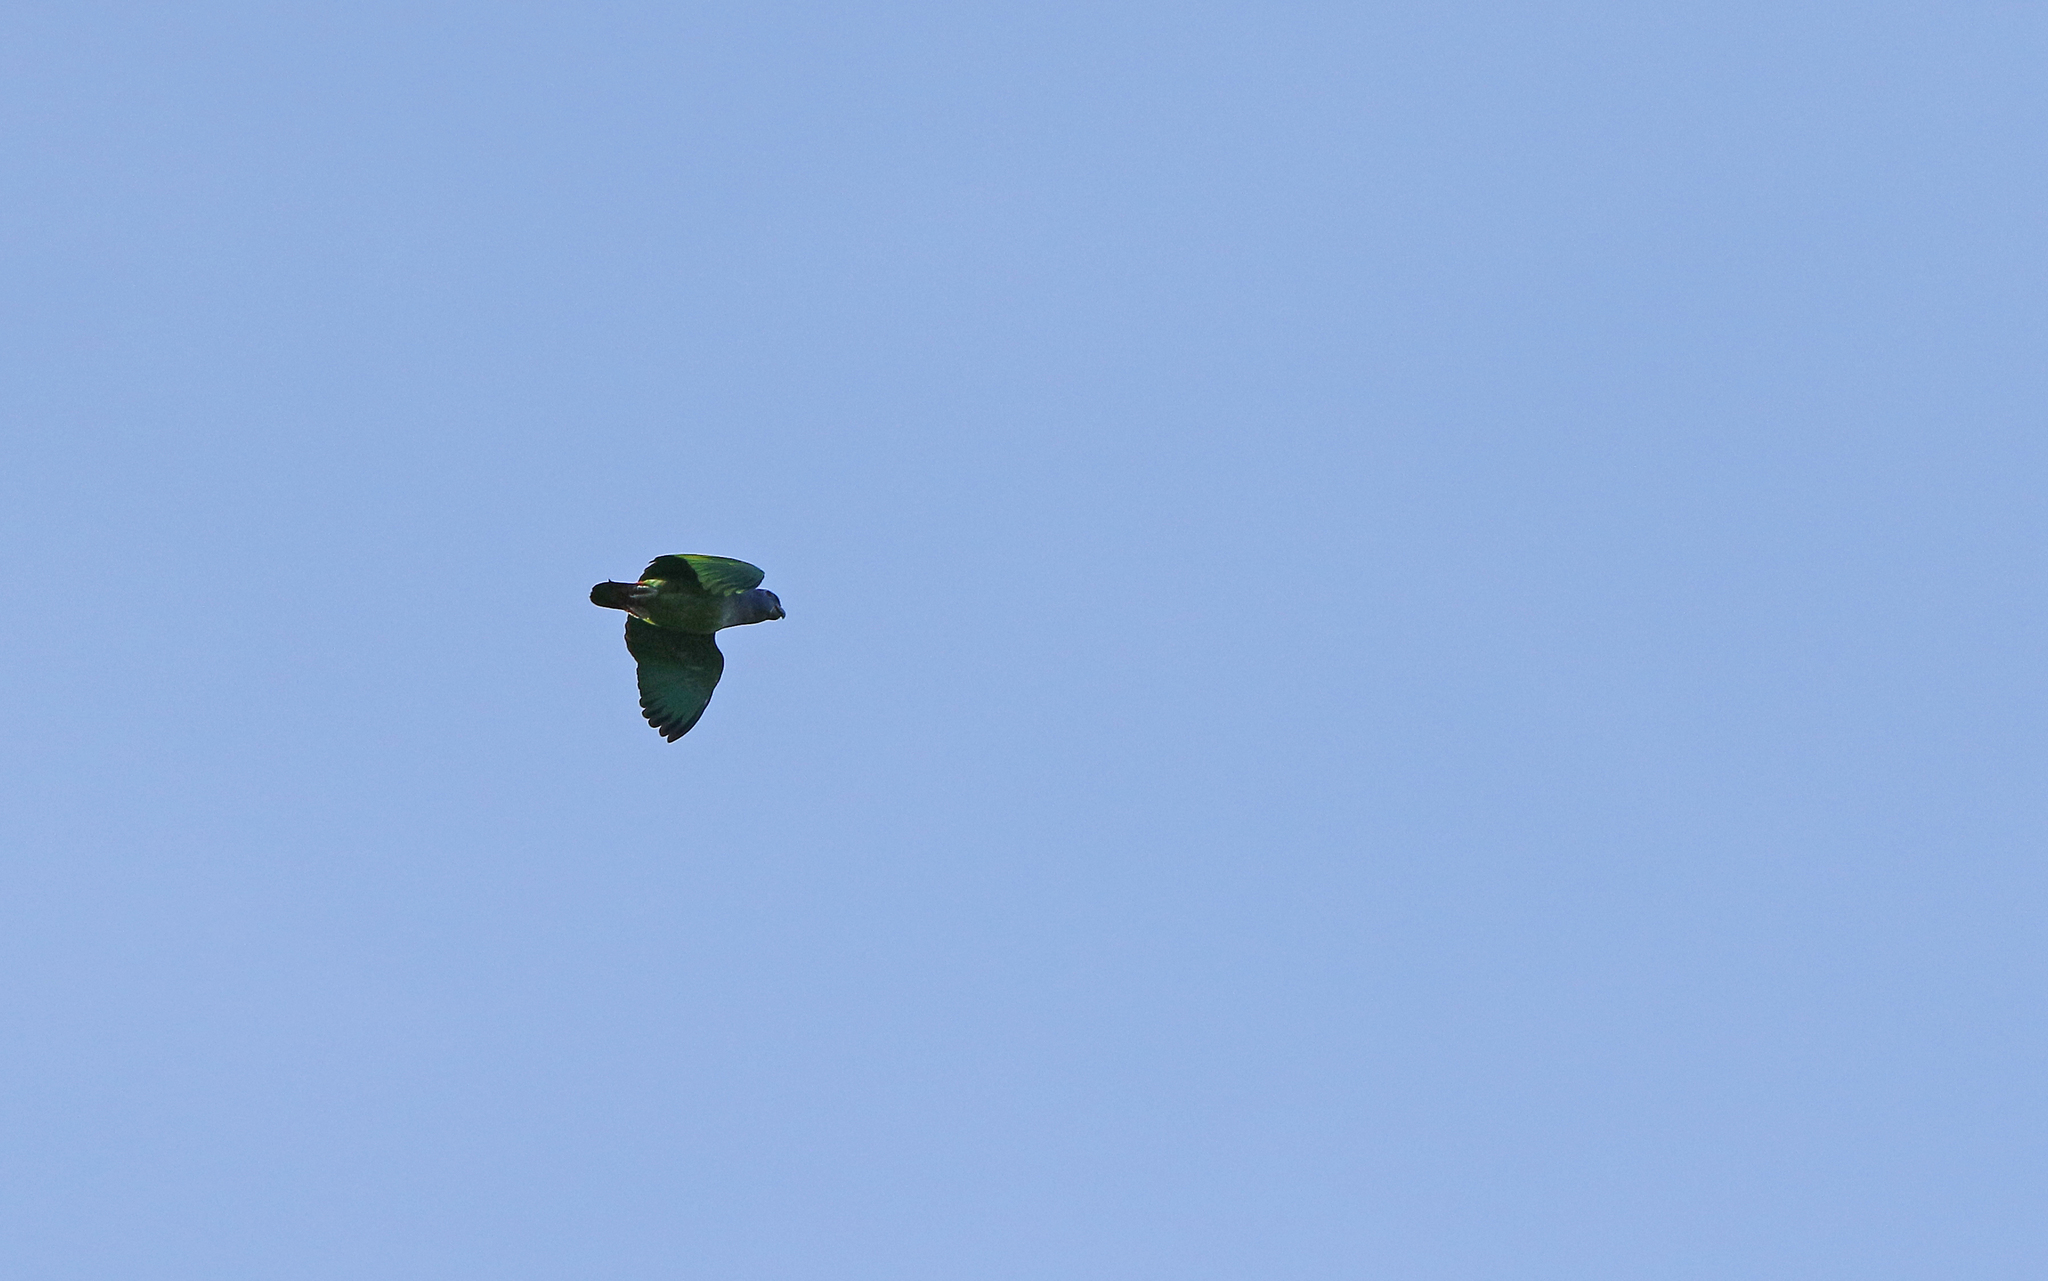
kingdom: Animalia
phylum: Chordata
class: Aves
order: Psittaciformes
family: Psittacidae
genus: Pionus
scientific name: Pionus menstruus
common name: Blue-headed parrot
